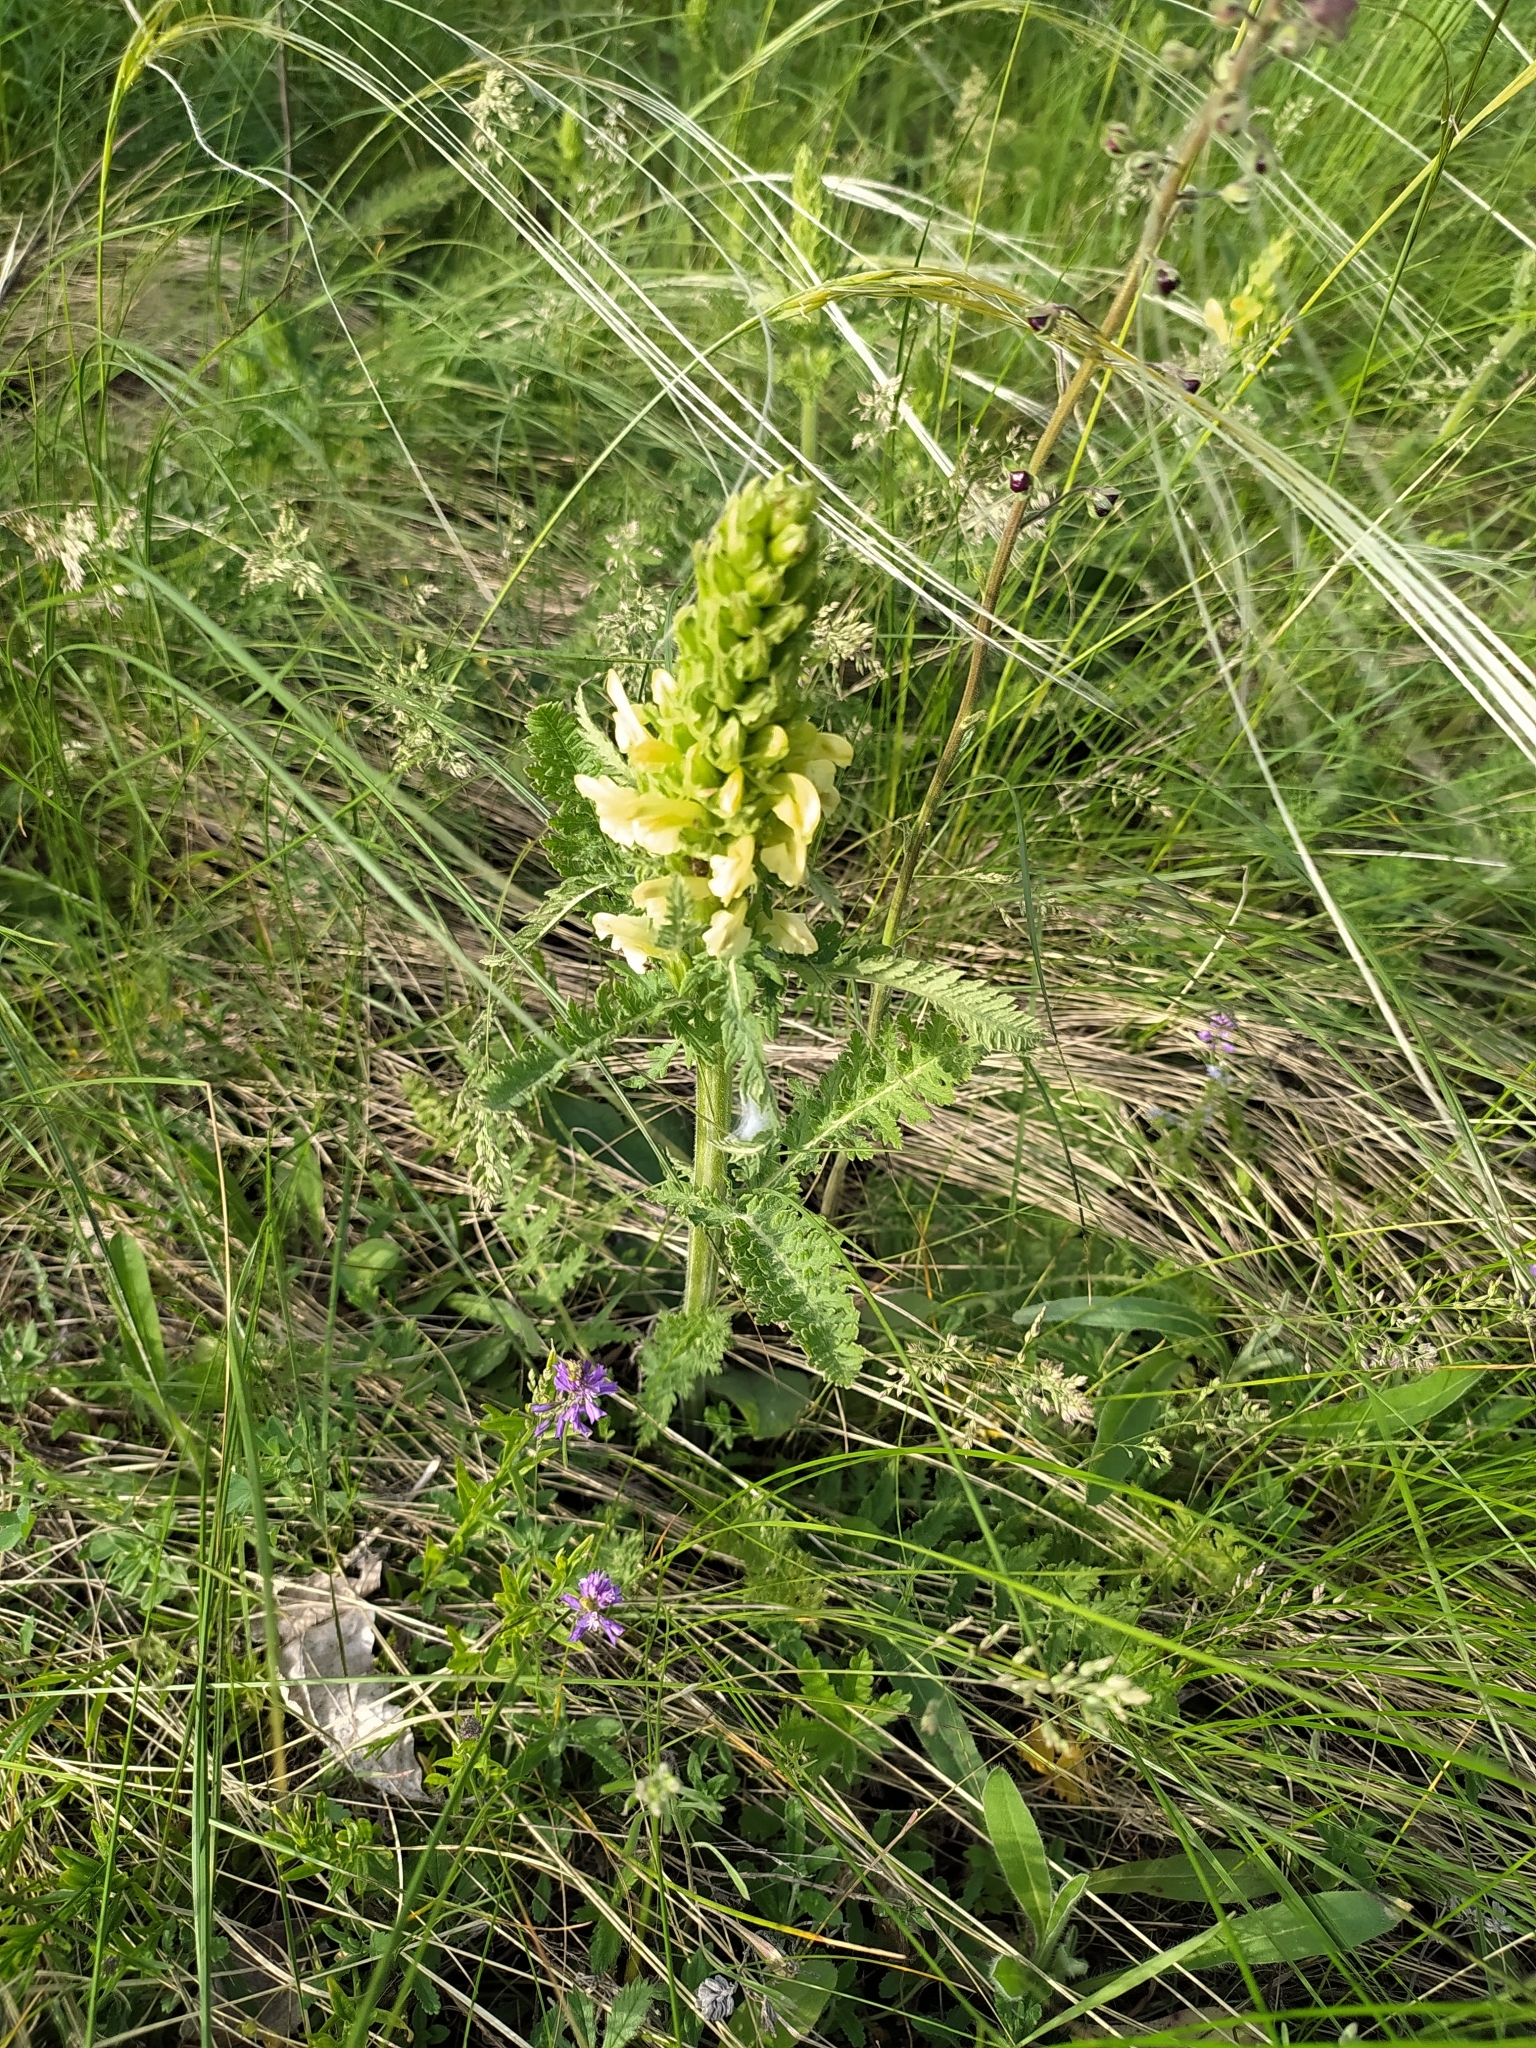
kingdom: Plantae
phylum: Tracheophyta
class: Magnoliopsida
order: Lamiales
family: Orobanchaceae
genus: Pedicularis
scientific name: Pedicularis kaufmannii
